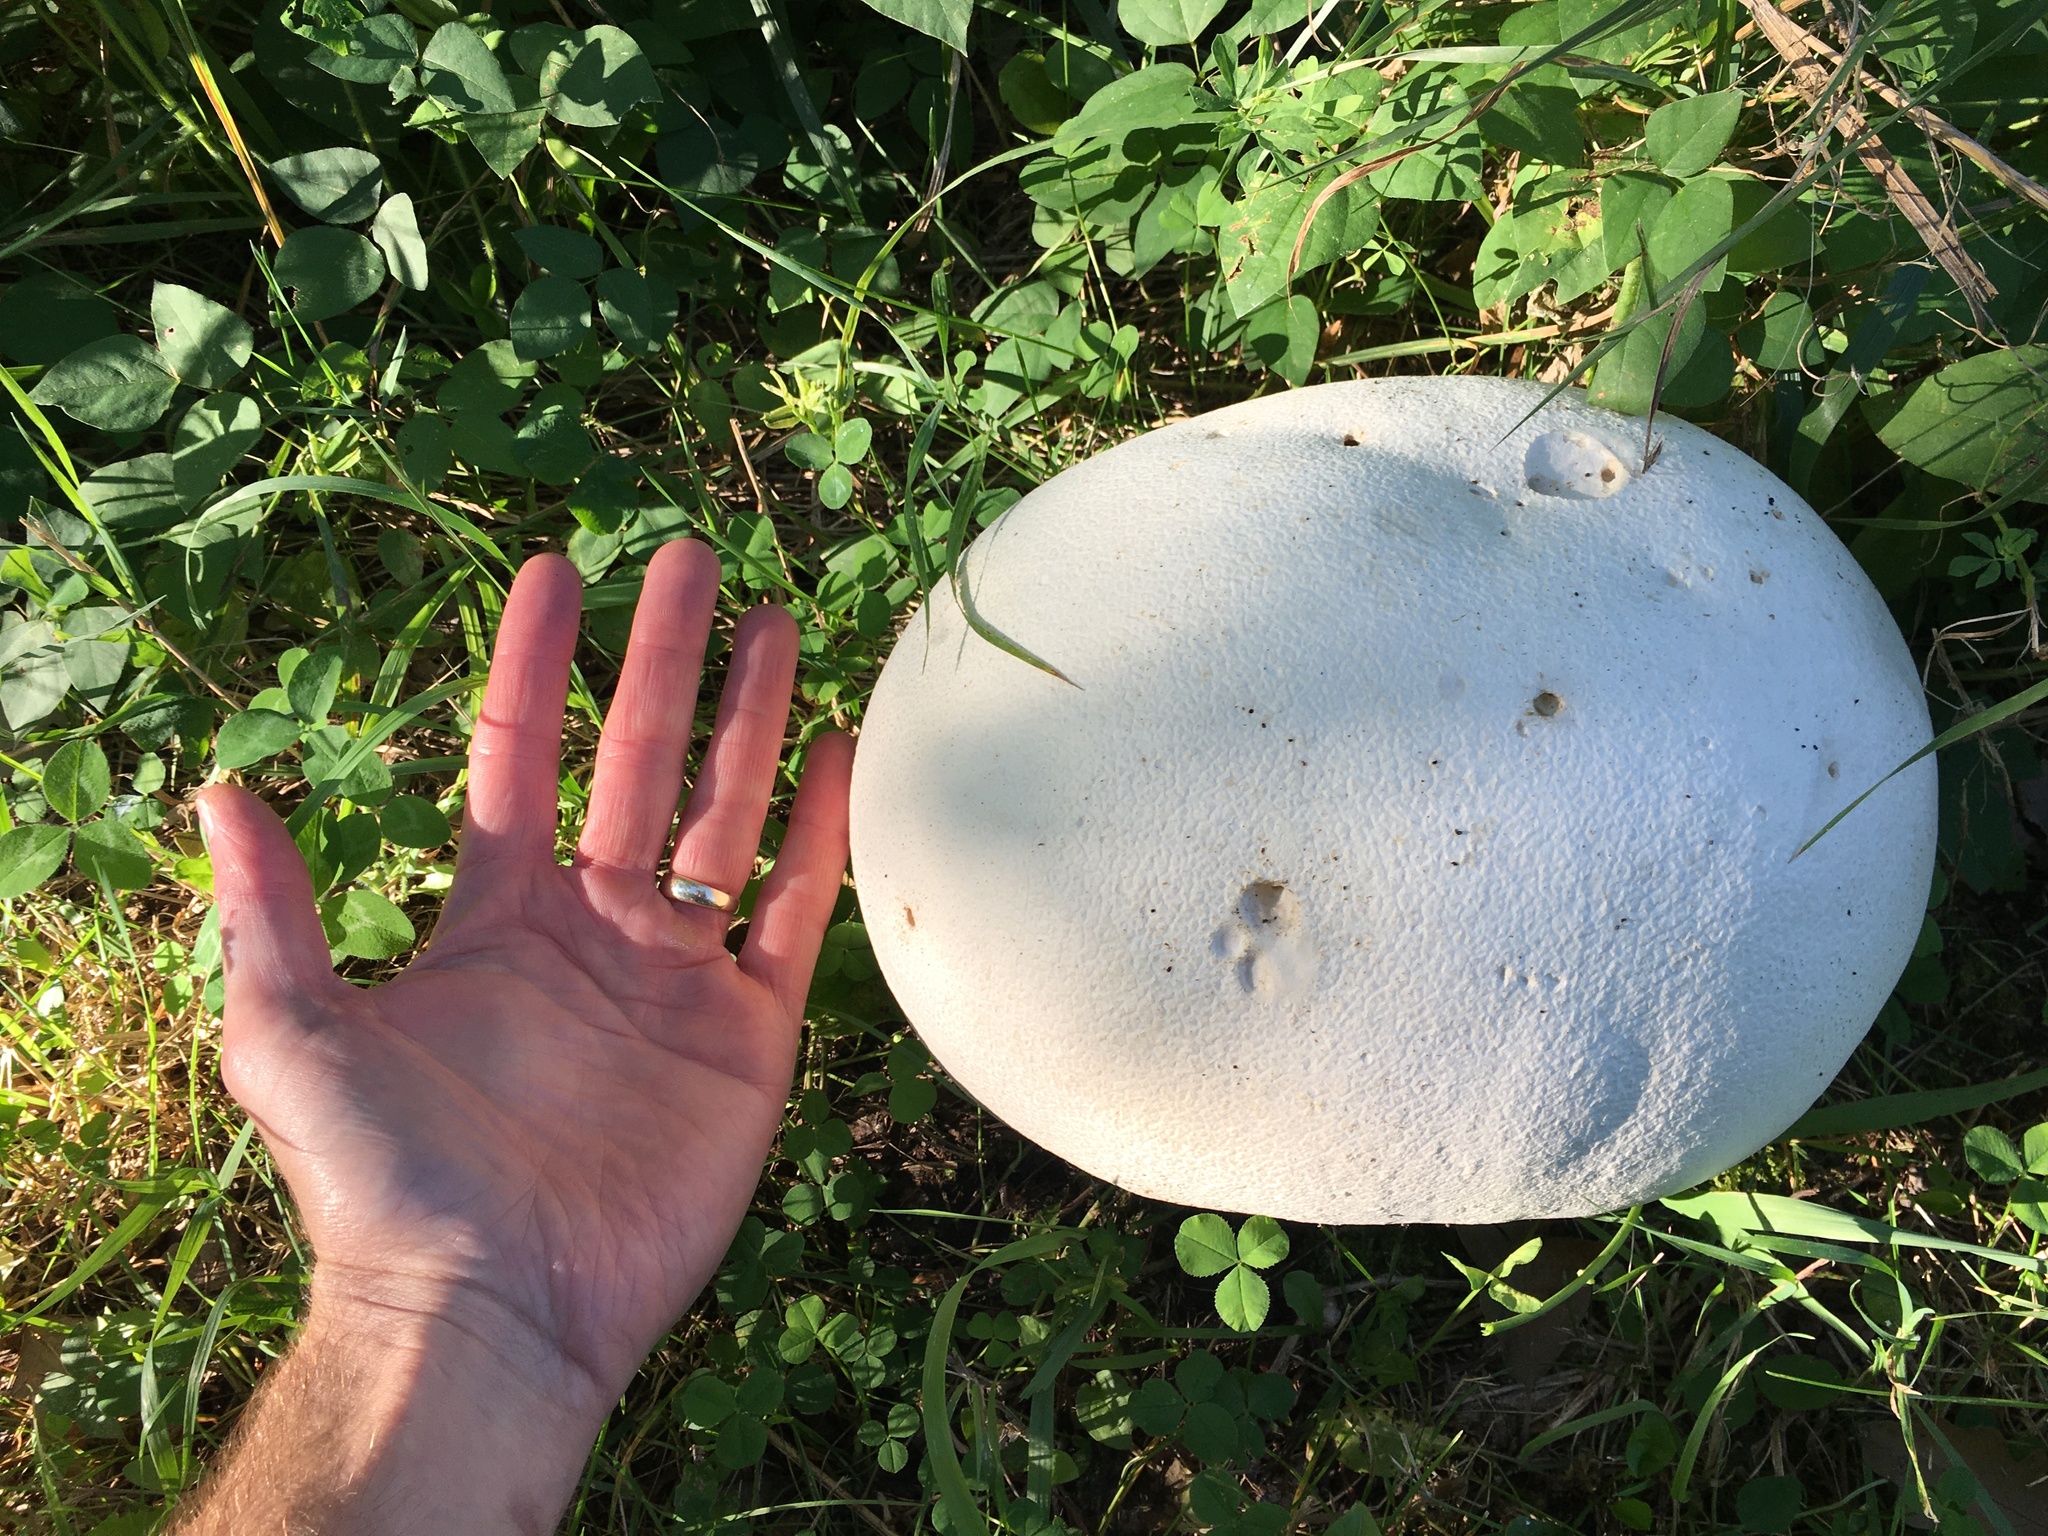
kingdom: Fungi
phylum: Basidiomycota
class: Agaricomycetes
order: Agaricales
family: Lycoperdaceae
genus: Calvatia
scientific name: Calvatia gigantea
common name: Giant puffball
